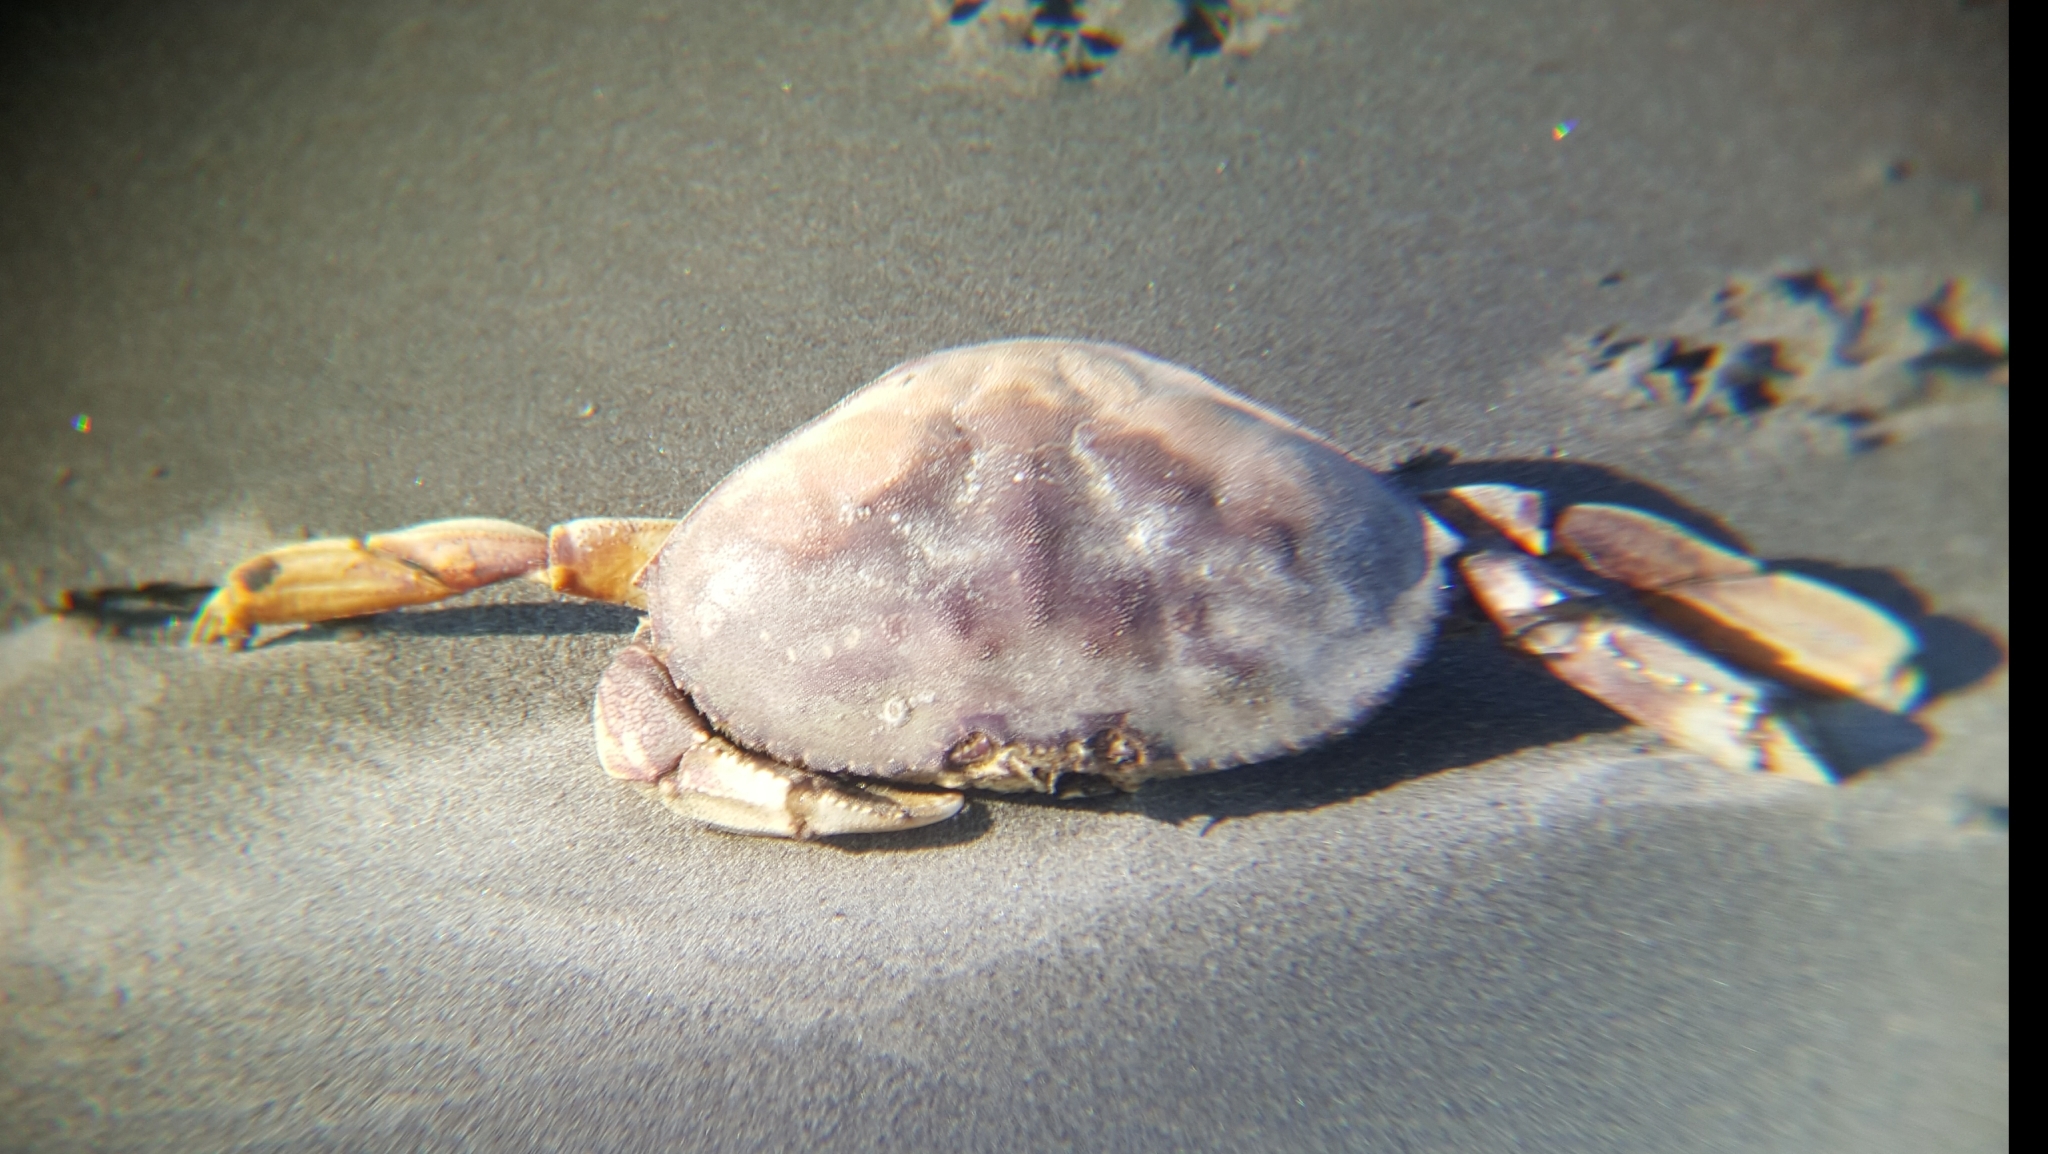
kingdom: Animalia
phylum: Arthropoda
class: Malacostraca
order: Decapoda
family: Cancridae
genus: Metacarcinus
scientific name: Metacarcinus magister
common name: Californian crab
